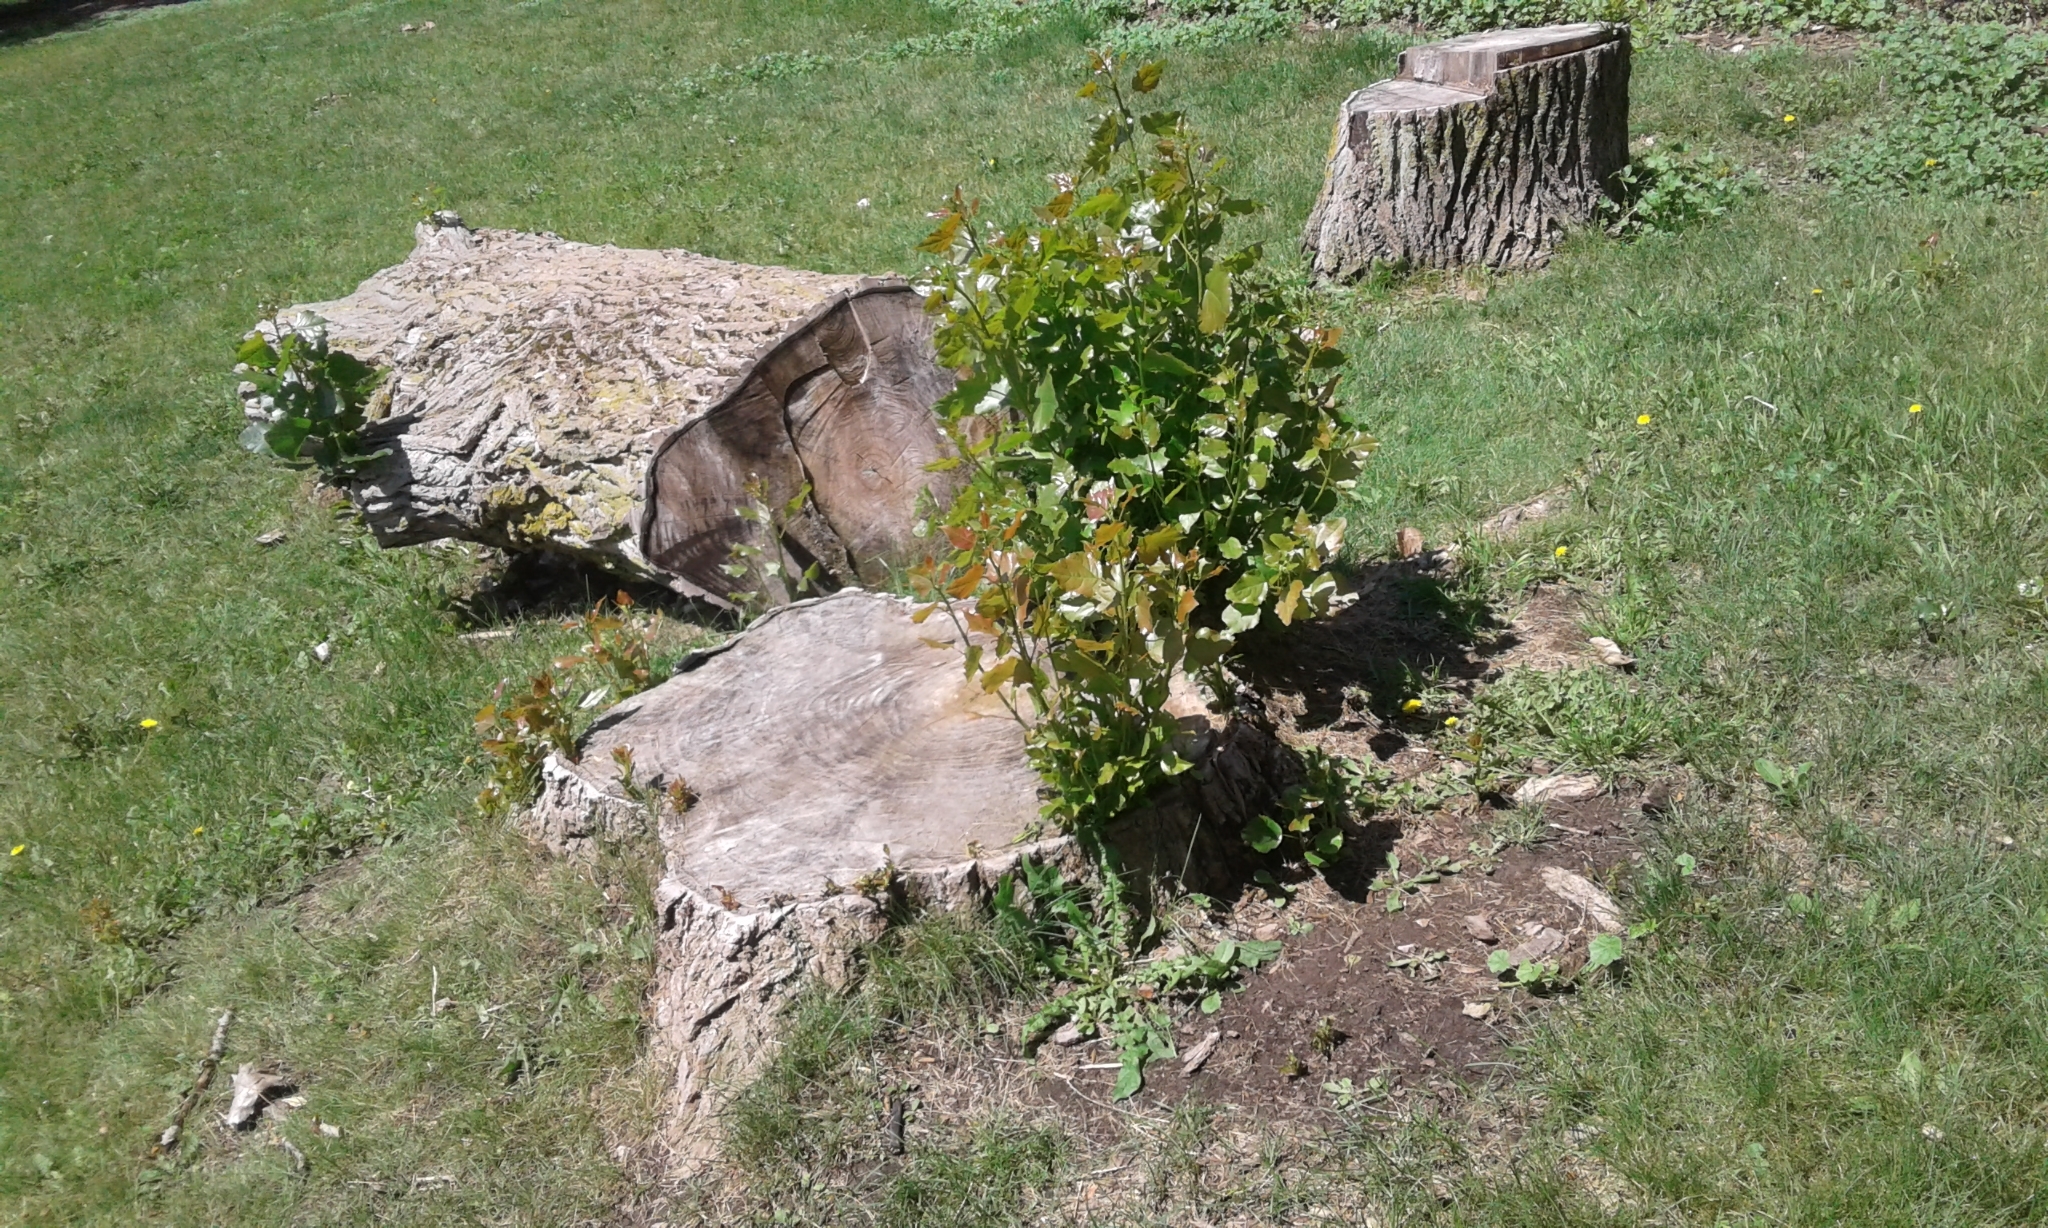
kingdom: Plantae
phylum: Tracheophyta
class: Magnoliopsida
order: Malpighiales
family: Salicaceae
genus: Populus
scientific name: Populus canadensis
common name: Carolina poplar
